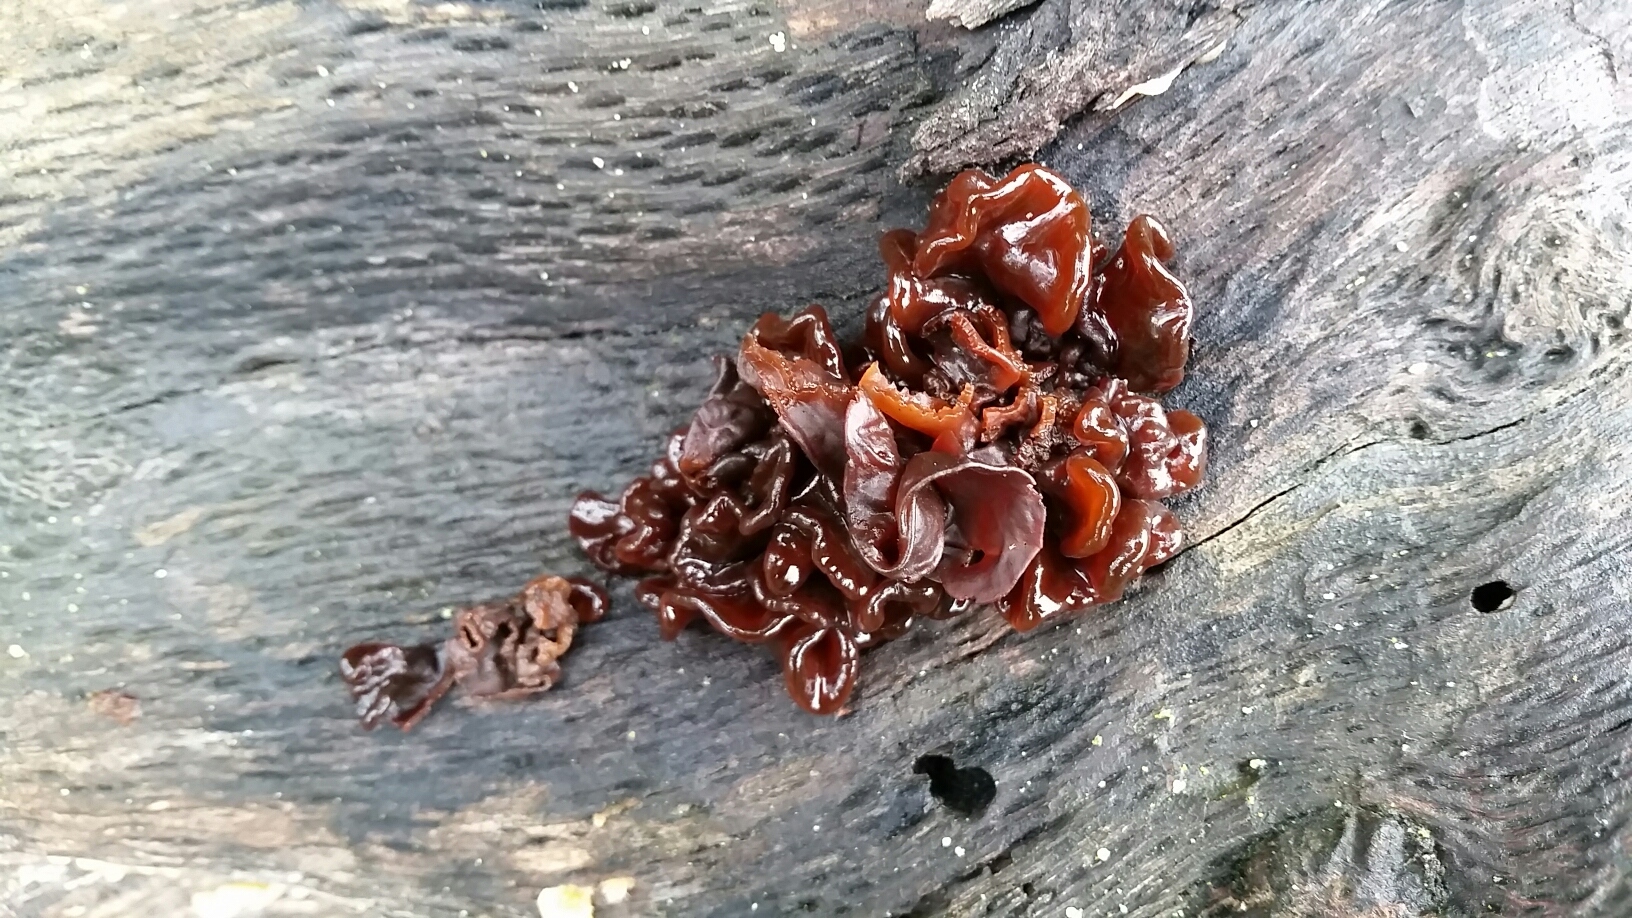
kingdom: Fungi
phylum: Basidiomycota
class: Tremellomycetes
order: Tremellales
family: Tremellaceae
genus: Phaeotremella
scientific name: Phaeotremella foliacea
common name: Leafy brain
